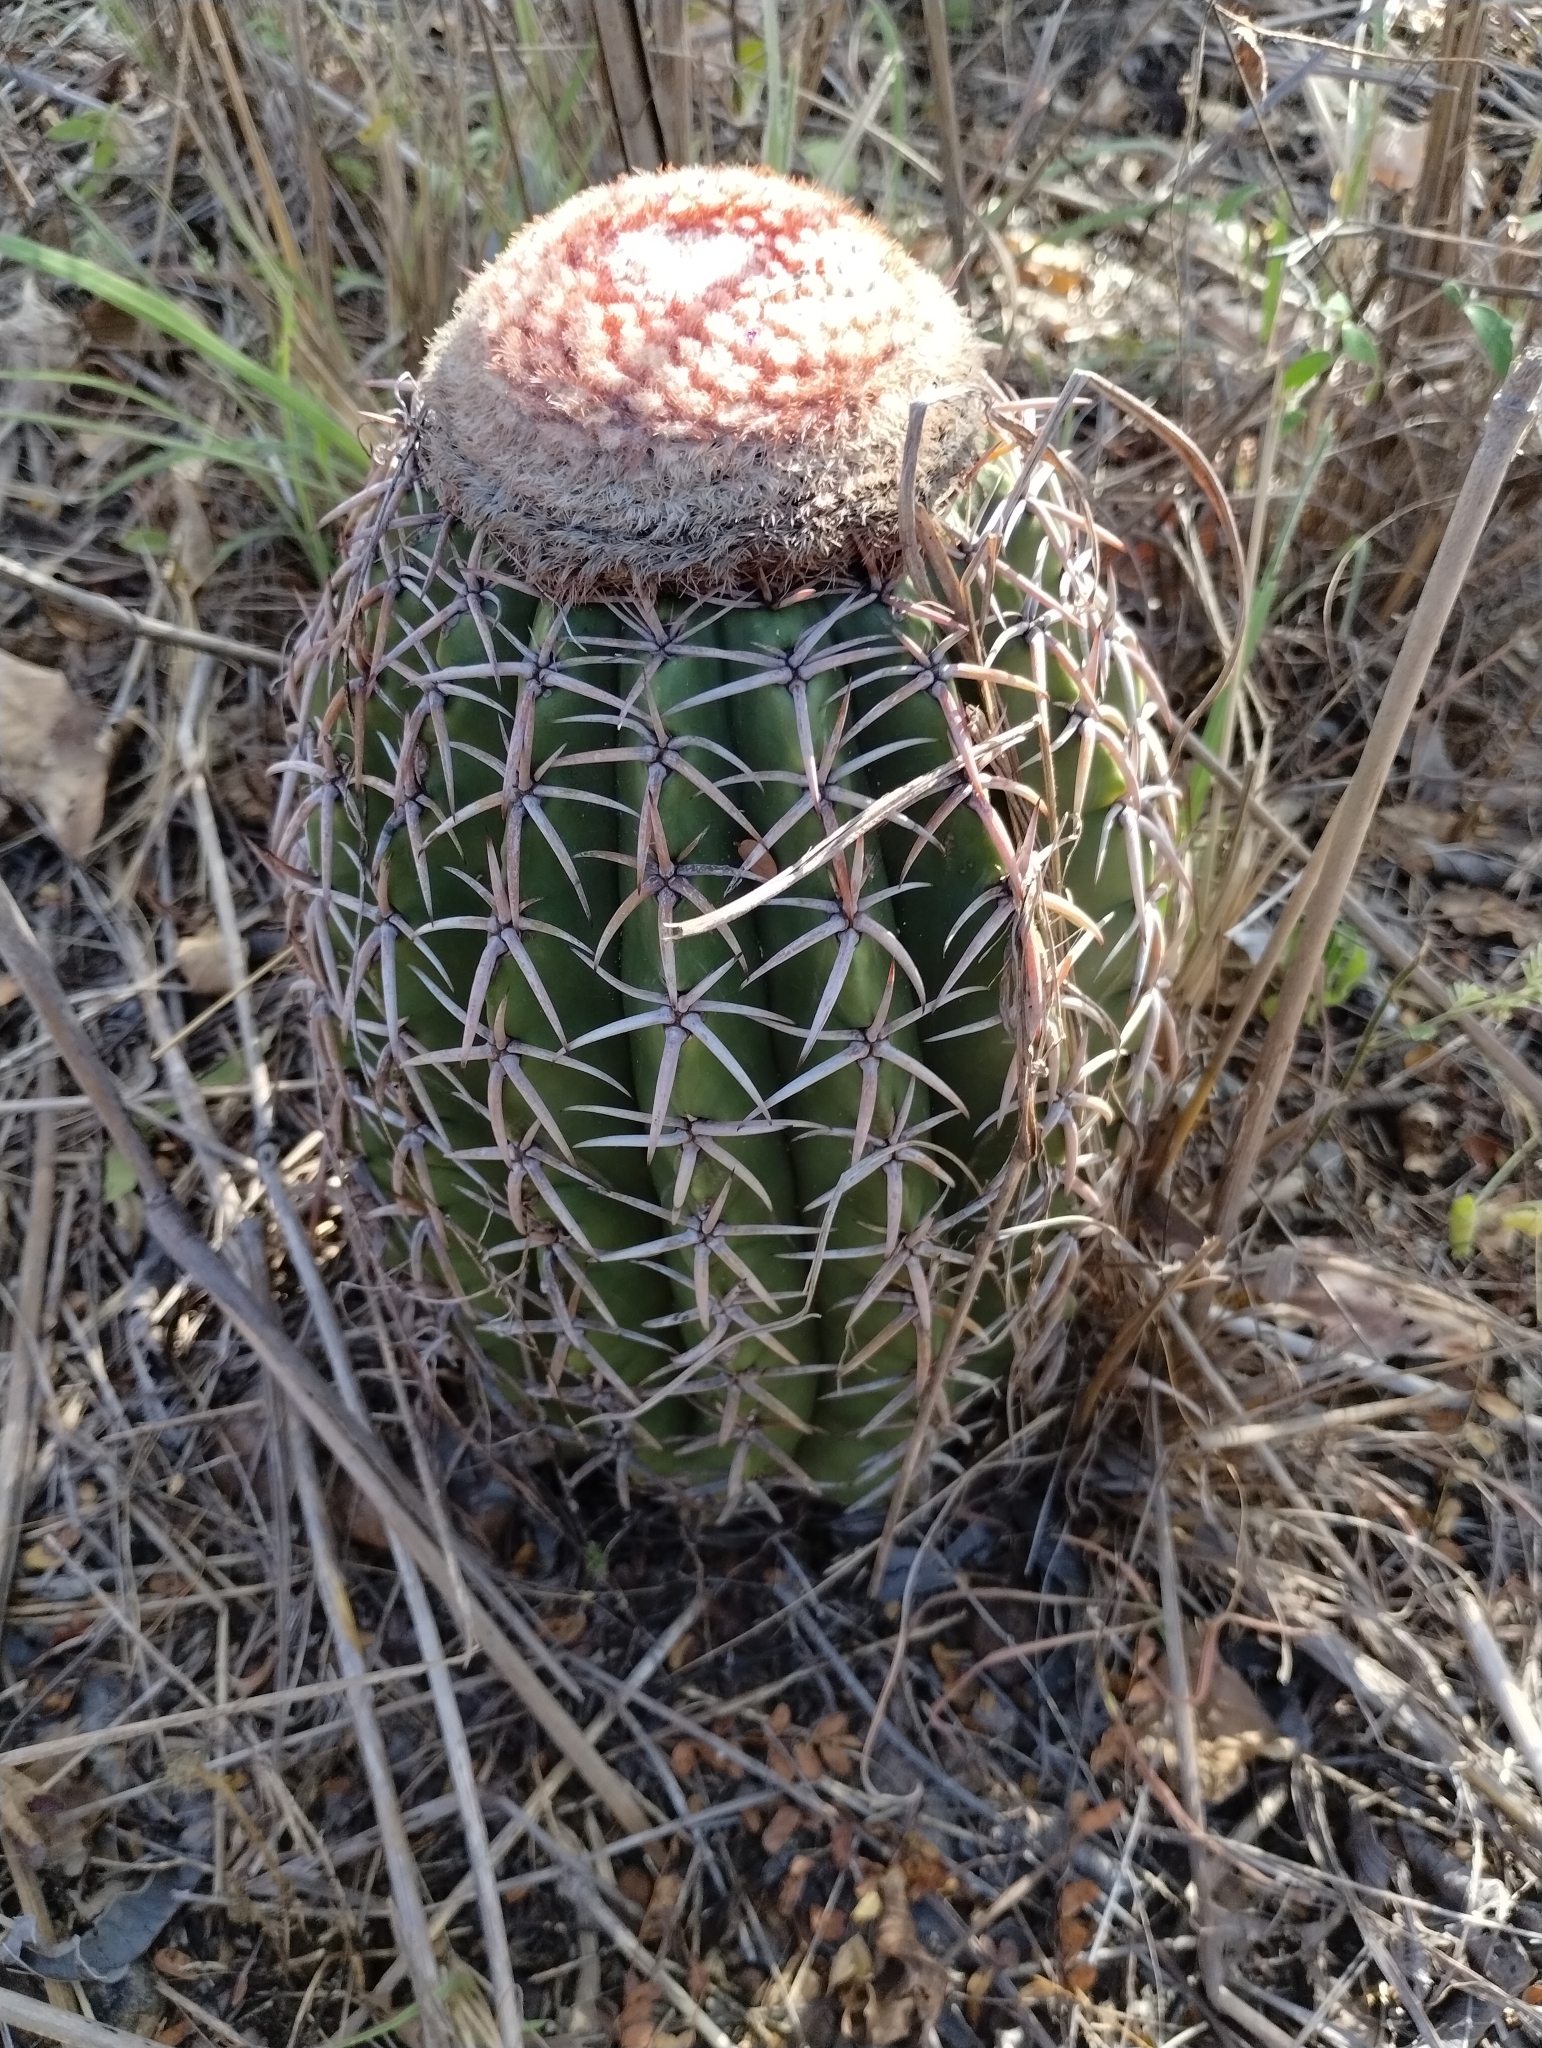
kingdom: Plantae
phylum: Tracheophyta
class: Magnoliopsida
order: Caryophyllales
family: Cactaceae
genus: Melocactus
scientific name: Melocactus zehntneri
